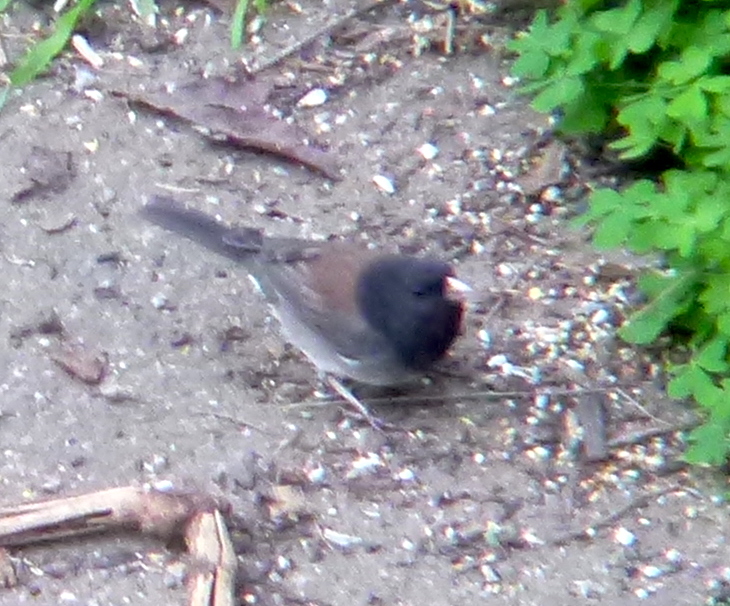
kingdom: Animalia
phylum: Chordata
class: Aves
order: Passeriformes
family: Passerellidae
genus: Junco
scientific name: Junco hyemalis
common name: Dark-eyed junco
